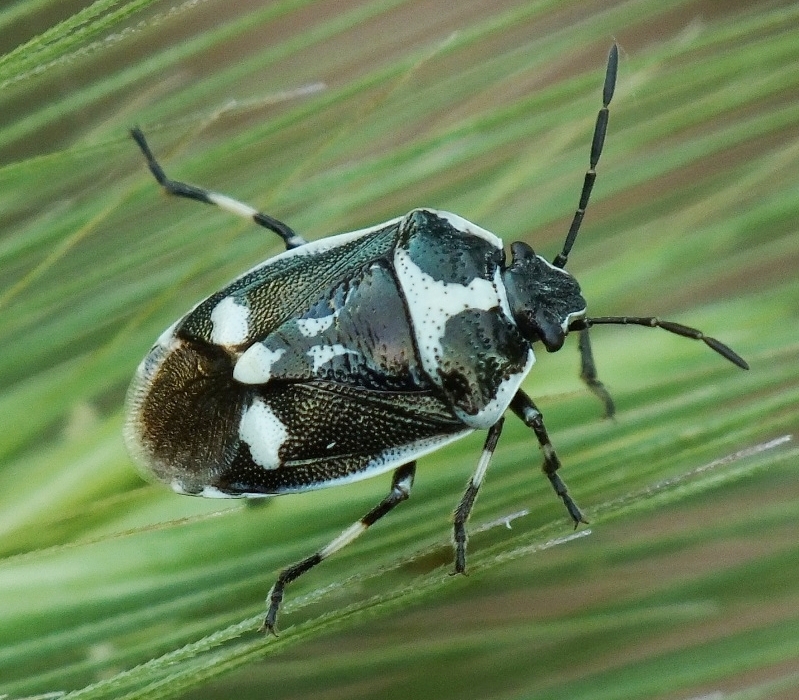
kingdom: Animalia
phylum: Arthropoda
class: Insecta
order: Hemiptera
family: Pentatomidae
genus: Eurydema
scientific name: Eurydema oleracea
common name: Cabbage bug
